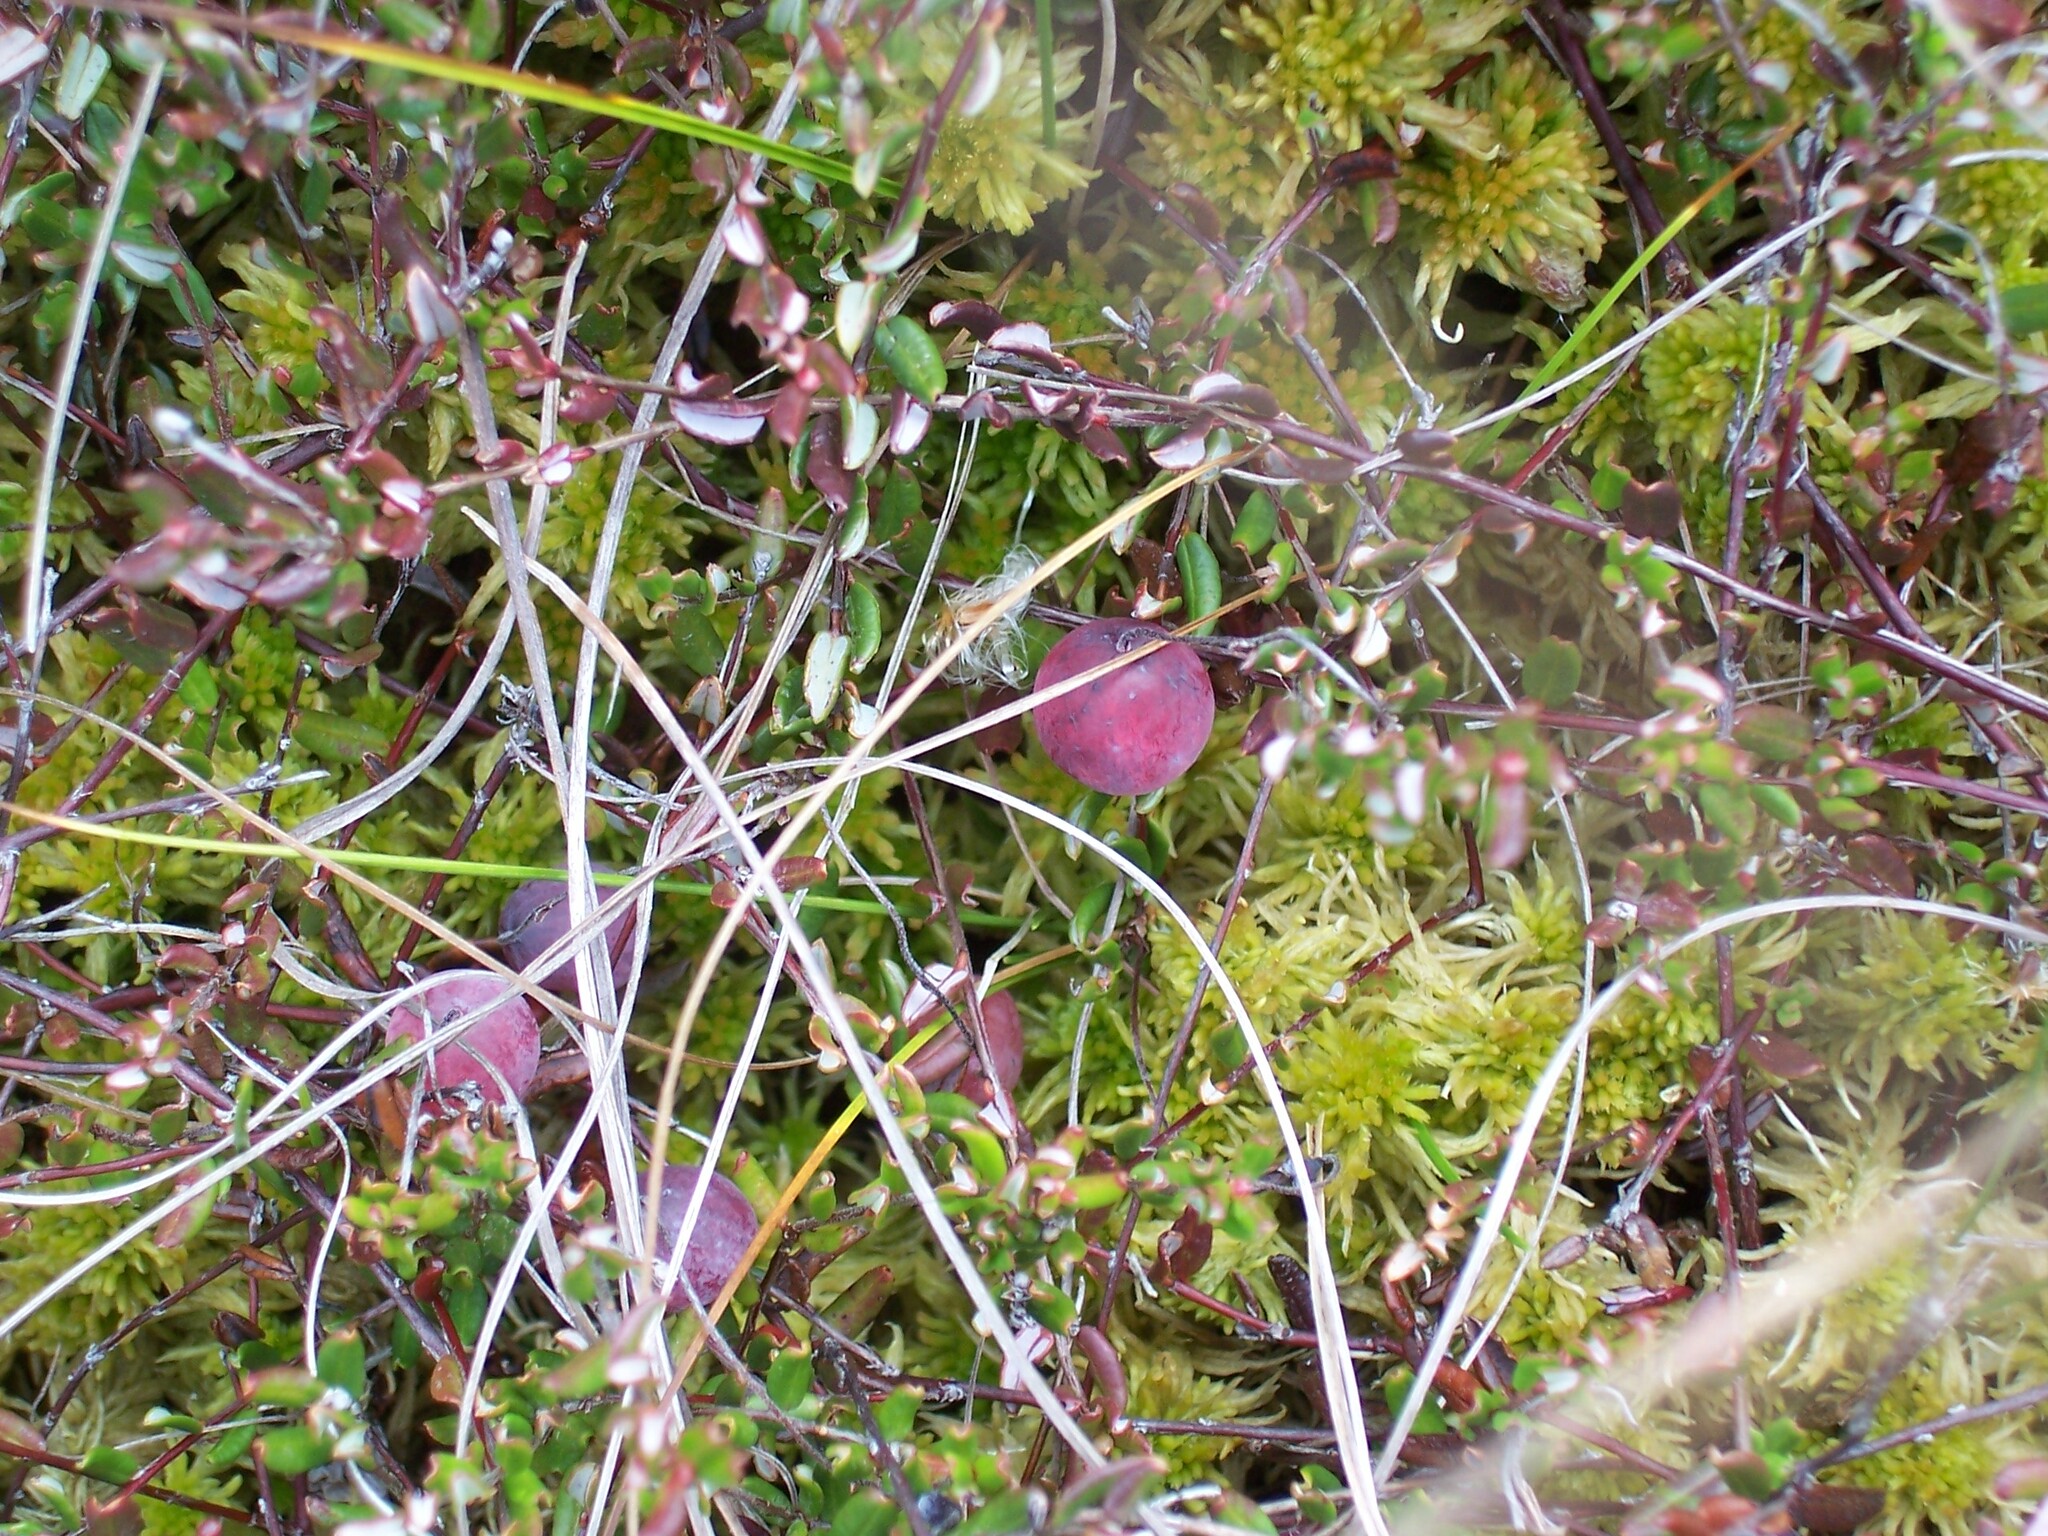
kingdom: Plantae
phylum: Tracheophyta
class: Magnoliopsida
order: Ericales
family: Ericaceae
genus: Vaccinium
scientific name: Vaccinium oxycoccos
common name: Cranberry
